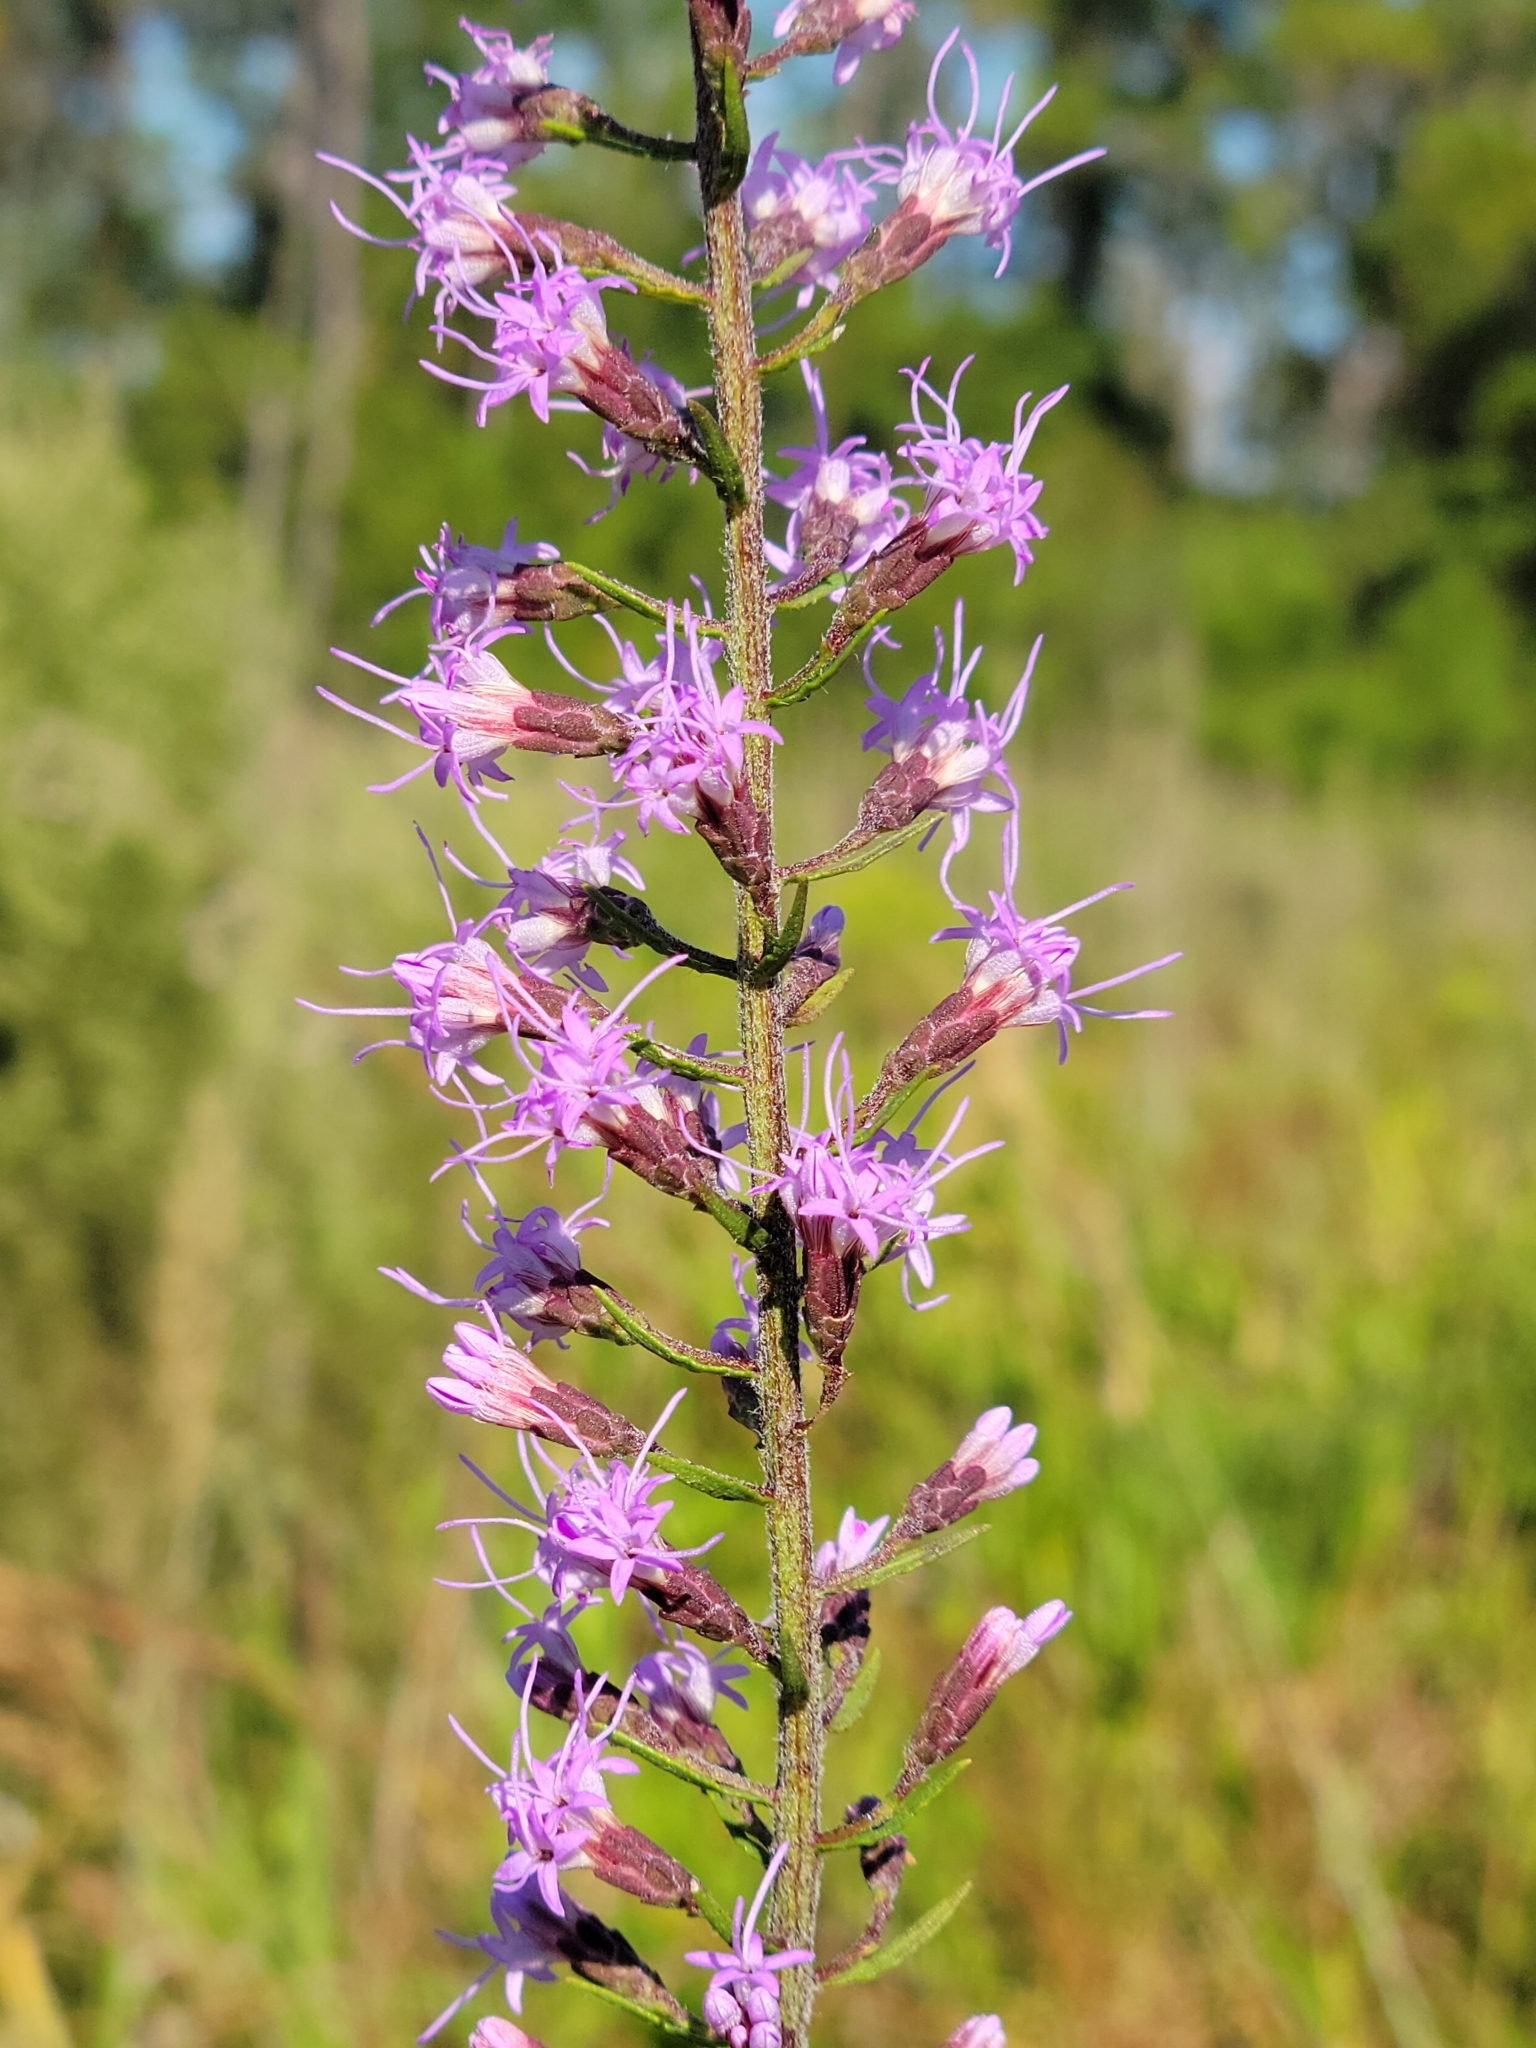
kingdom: Plantae
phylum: Tracheophyta
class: Magnoliopsida
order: Asterales
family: Asteraceae
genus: Liatris
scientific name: Liatris gracilis
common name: Slender gayfeather
